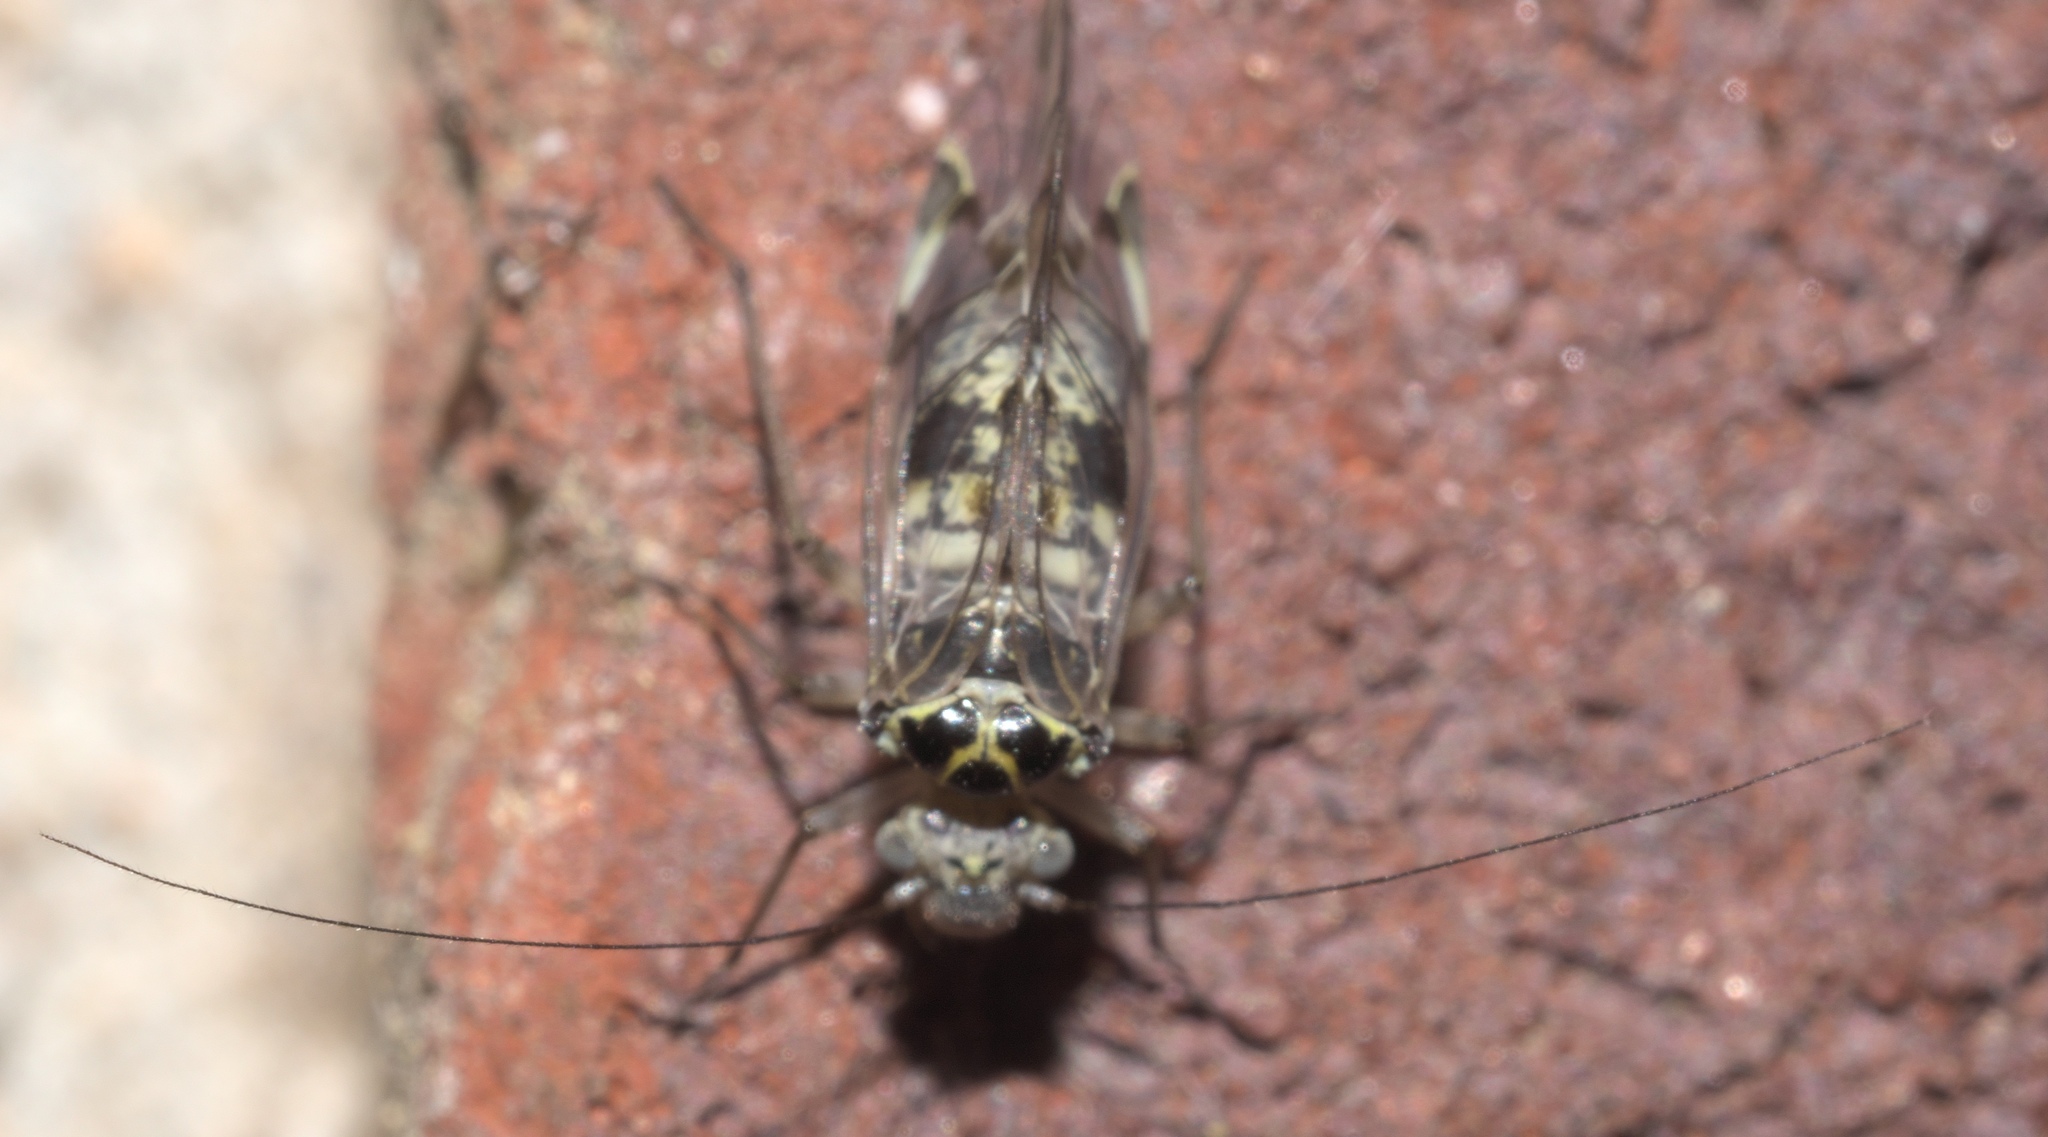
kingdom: Animalia
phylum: Arthropoda
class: Insecta
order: Psocodea
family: Psocidae
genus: Metylophorus
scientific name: Metylophorus novaescotiae
